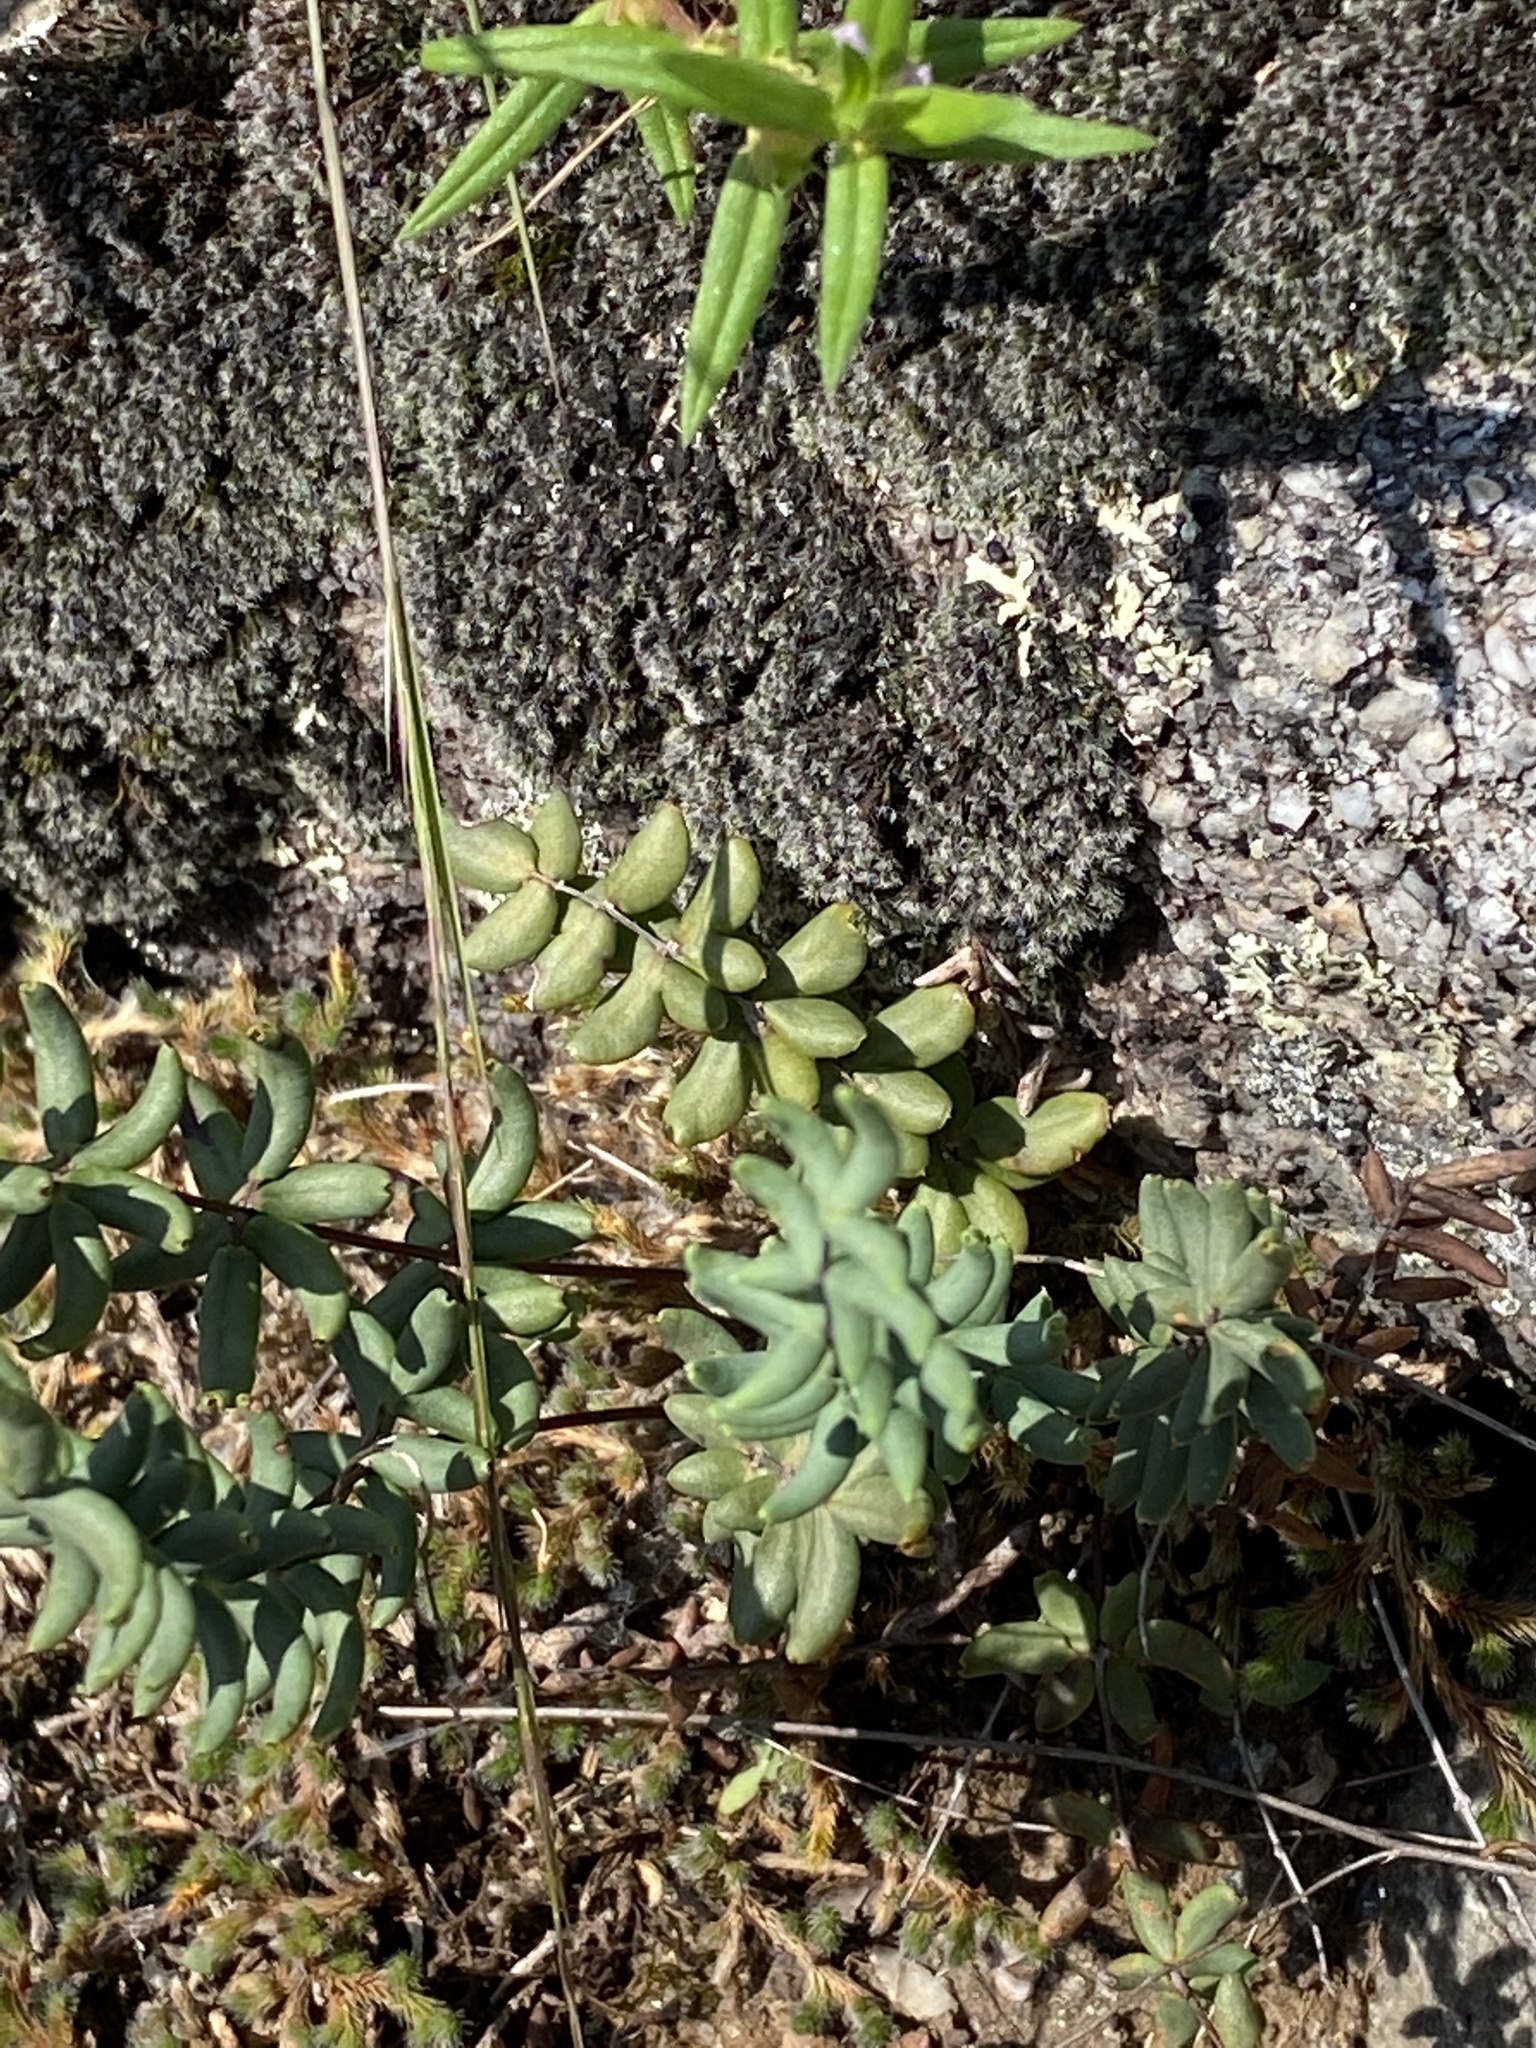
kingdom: Plantae
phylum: Tracheophyta
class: Polypodiopsida
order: Polypodiales
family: Pteridaceae
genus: Pellaea
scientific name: Pellaea wrightiana
